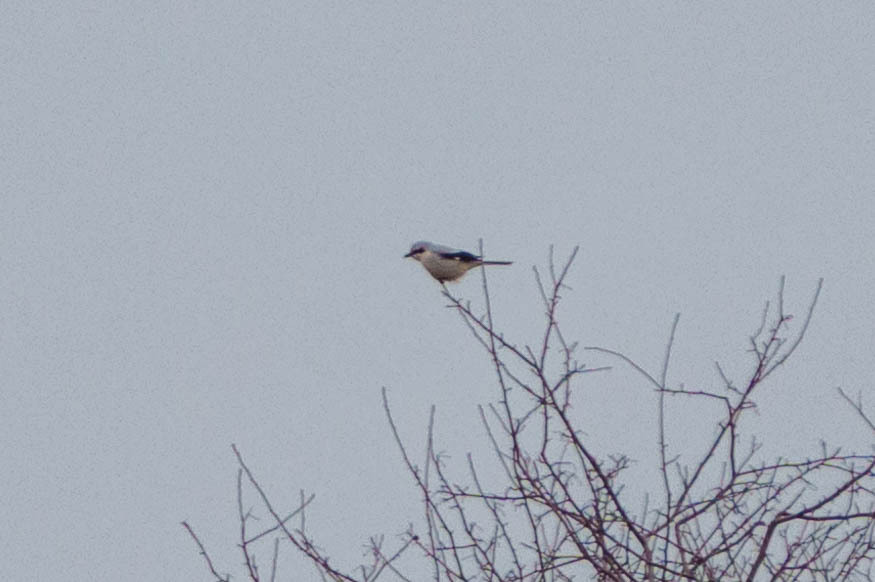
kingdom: Animalia
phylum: Chordata
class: Aves
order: Passeriformes
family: Laniidae
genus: Lanius
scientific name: Lanius borealis
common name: Northern shrike
